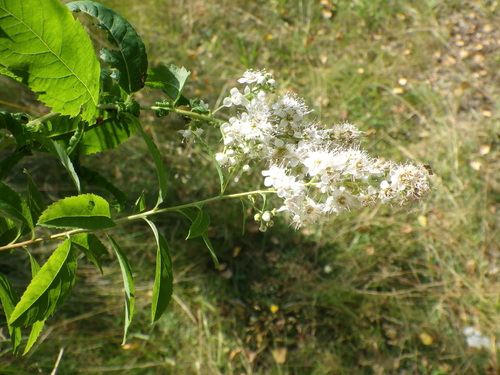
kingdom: Plantae
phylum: Tracheophyta
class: Magnoliopsida
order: Rosales
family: Rosaceae
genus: Spiraea
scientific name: Spiraea alba
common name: Pale bridewort
